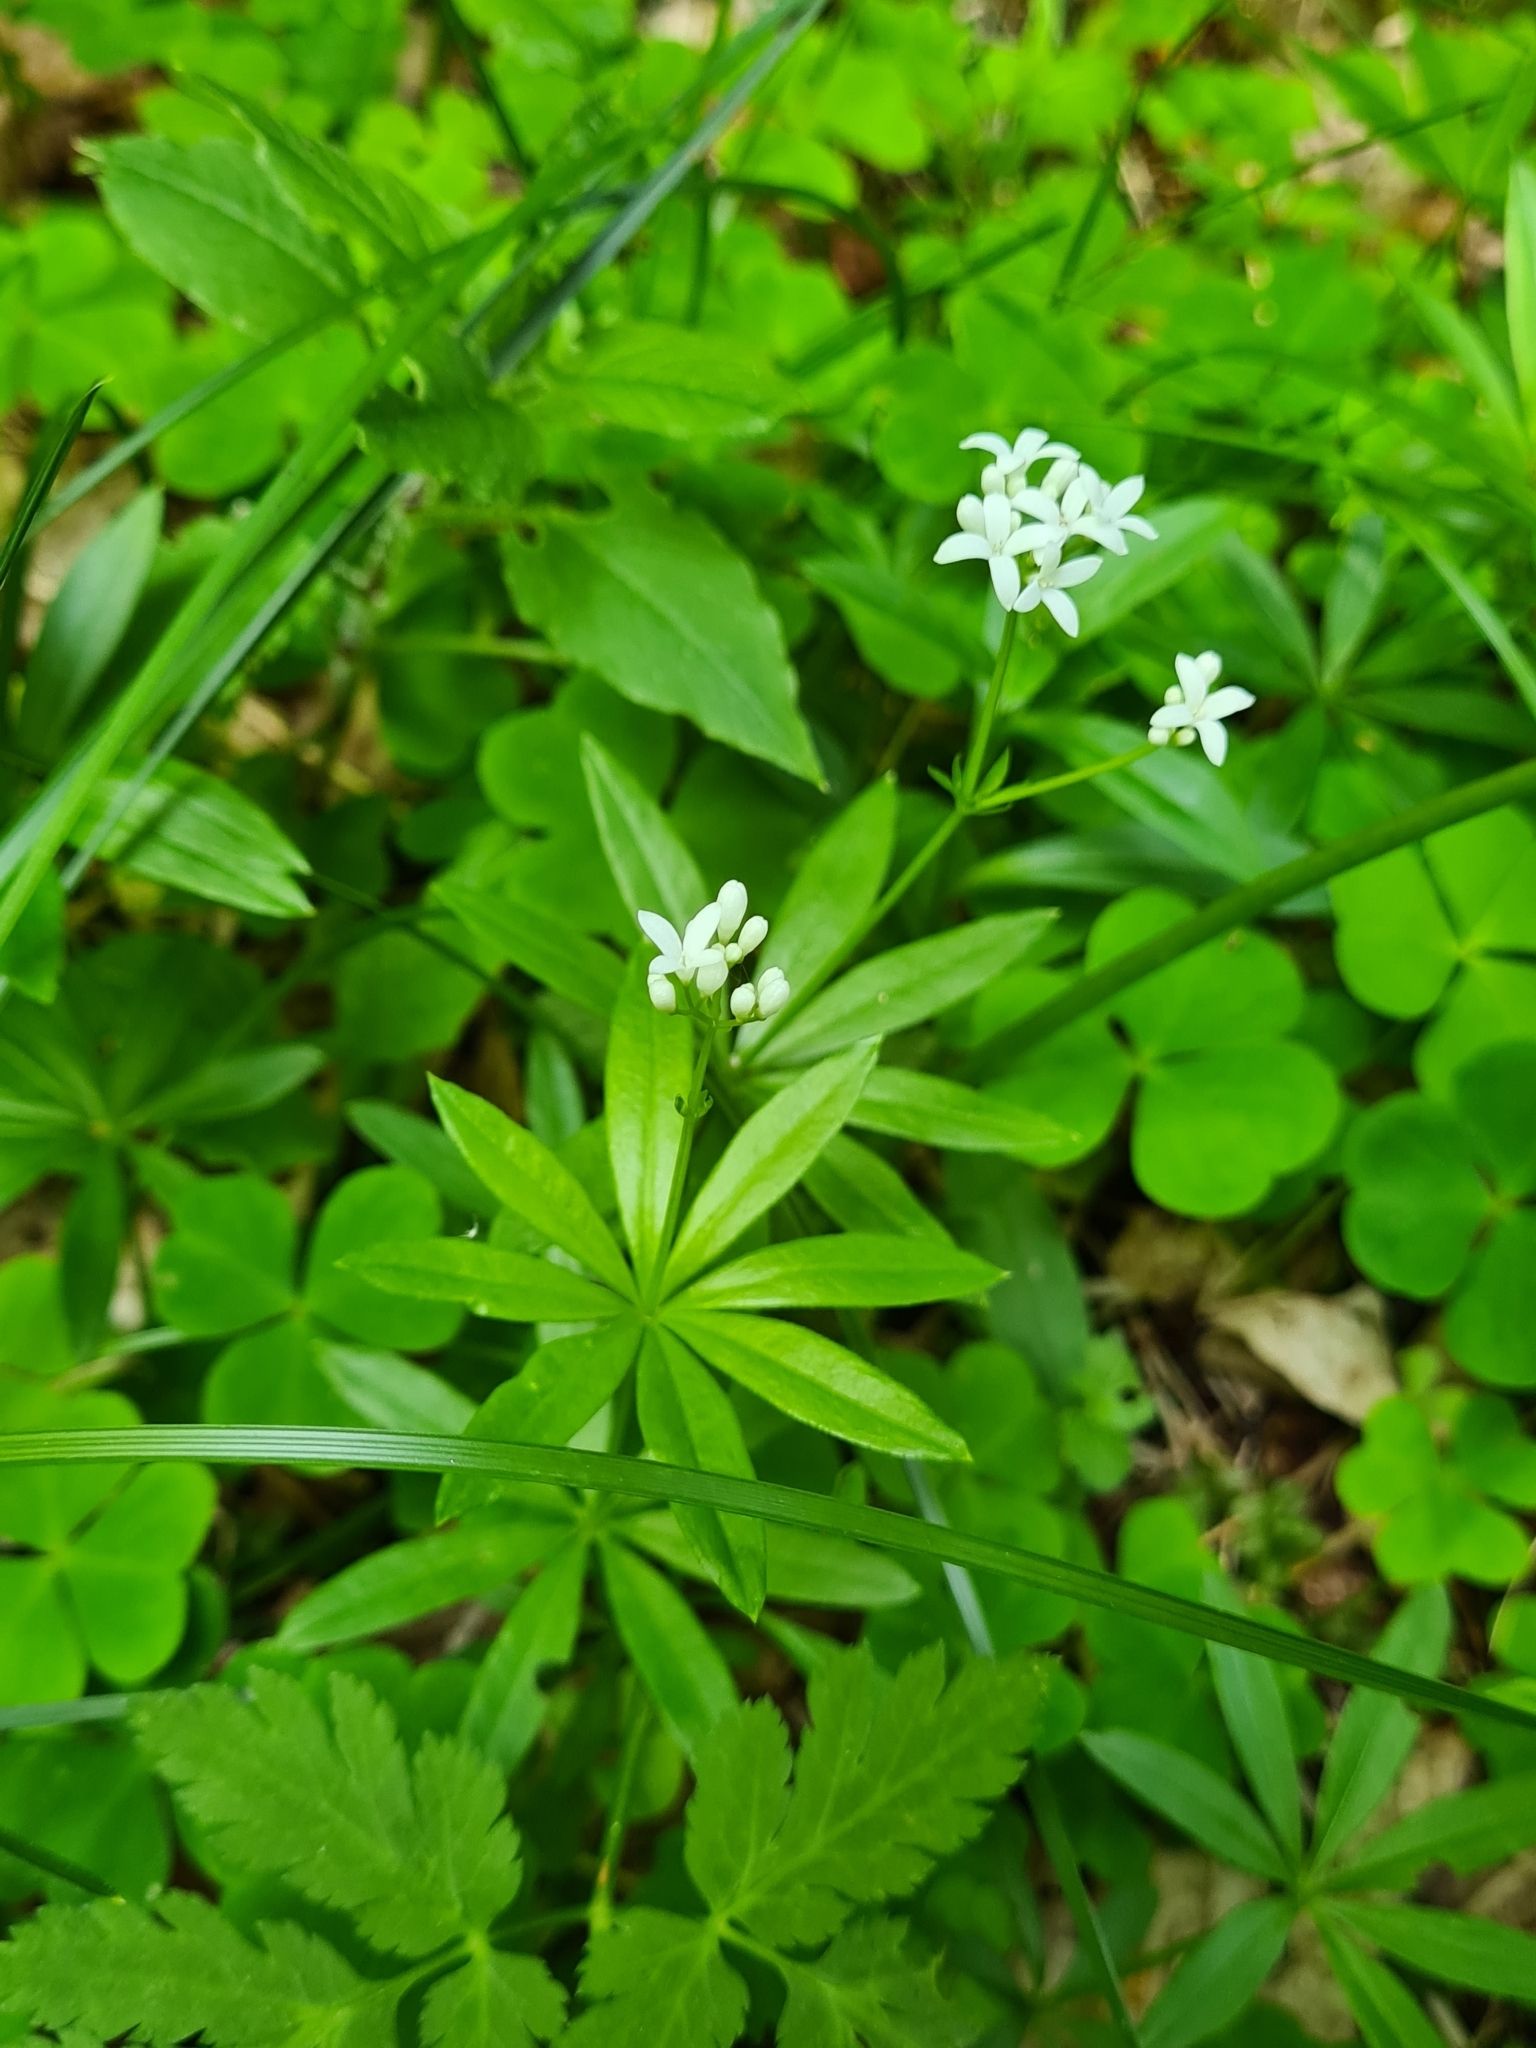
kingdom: Plantae
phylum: Tracheophyta
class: Magnoliopsida
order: Gentianales
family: Rubiaceae
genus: Galium
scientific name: Galium odoratum
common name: Sweet woodruff
